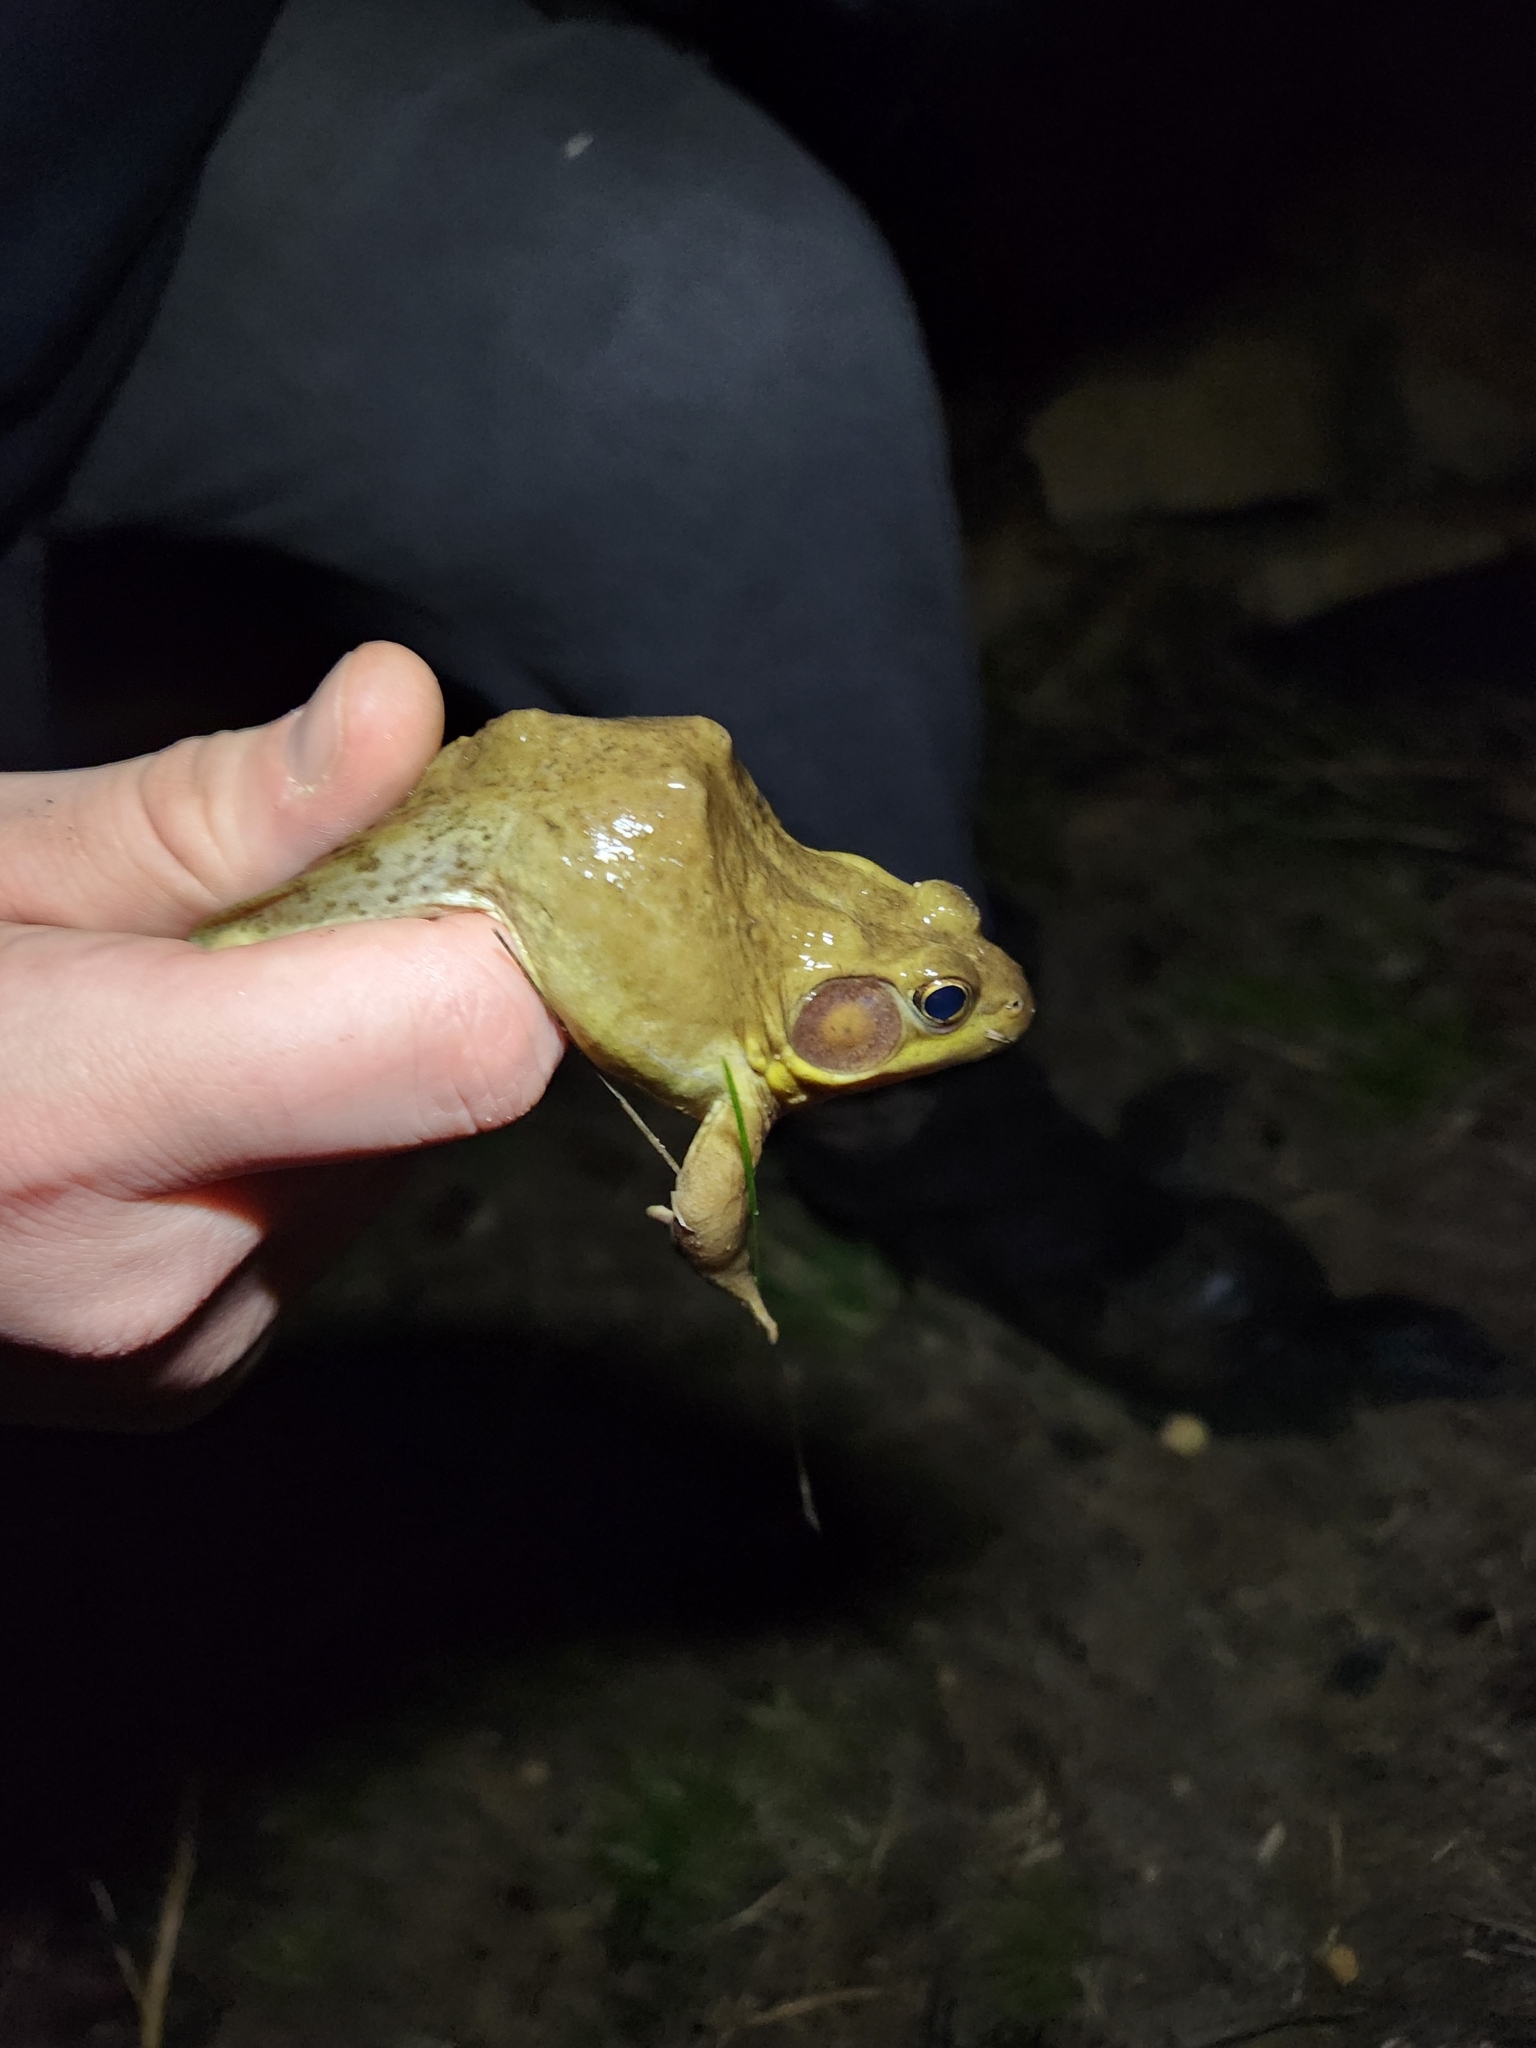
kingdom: Animalia
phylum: Chordata
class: Amphibia
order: Anura
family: Ranidae
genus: Lithobates
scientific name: Lithobates clamitans
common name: Green frog
